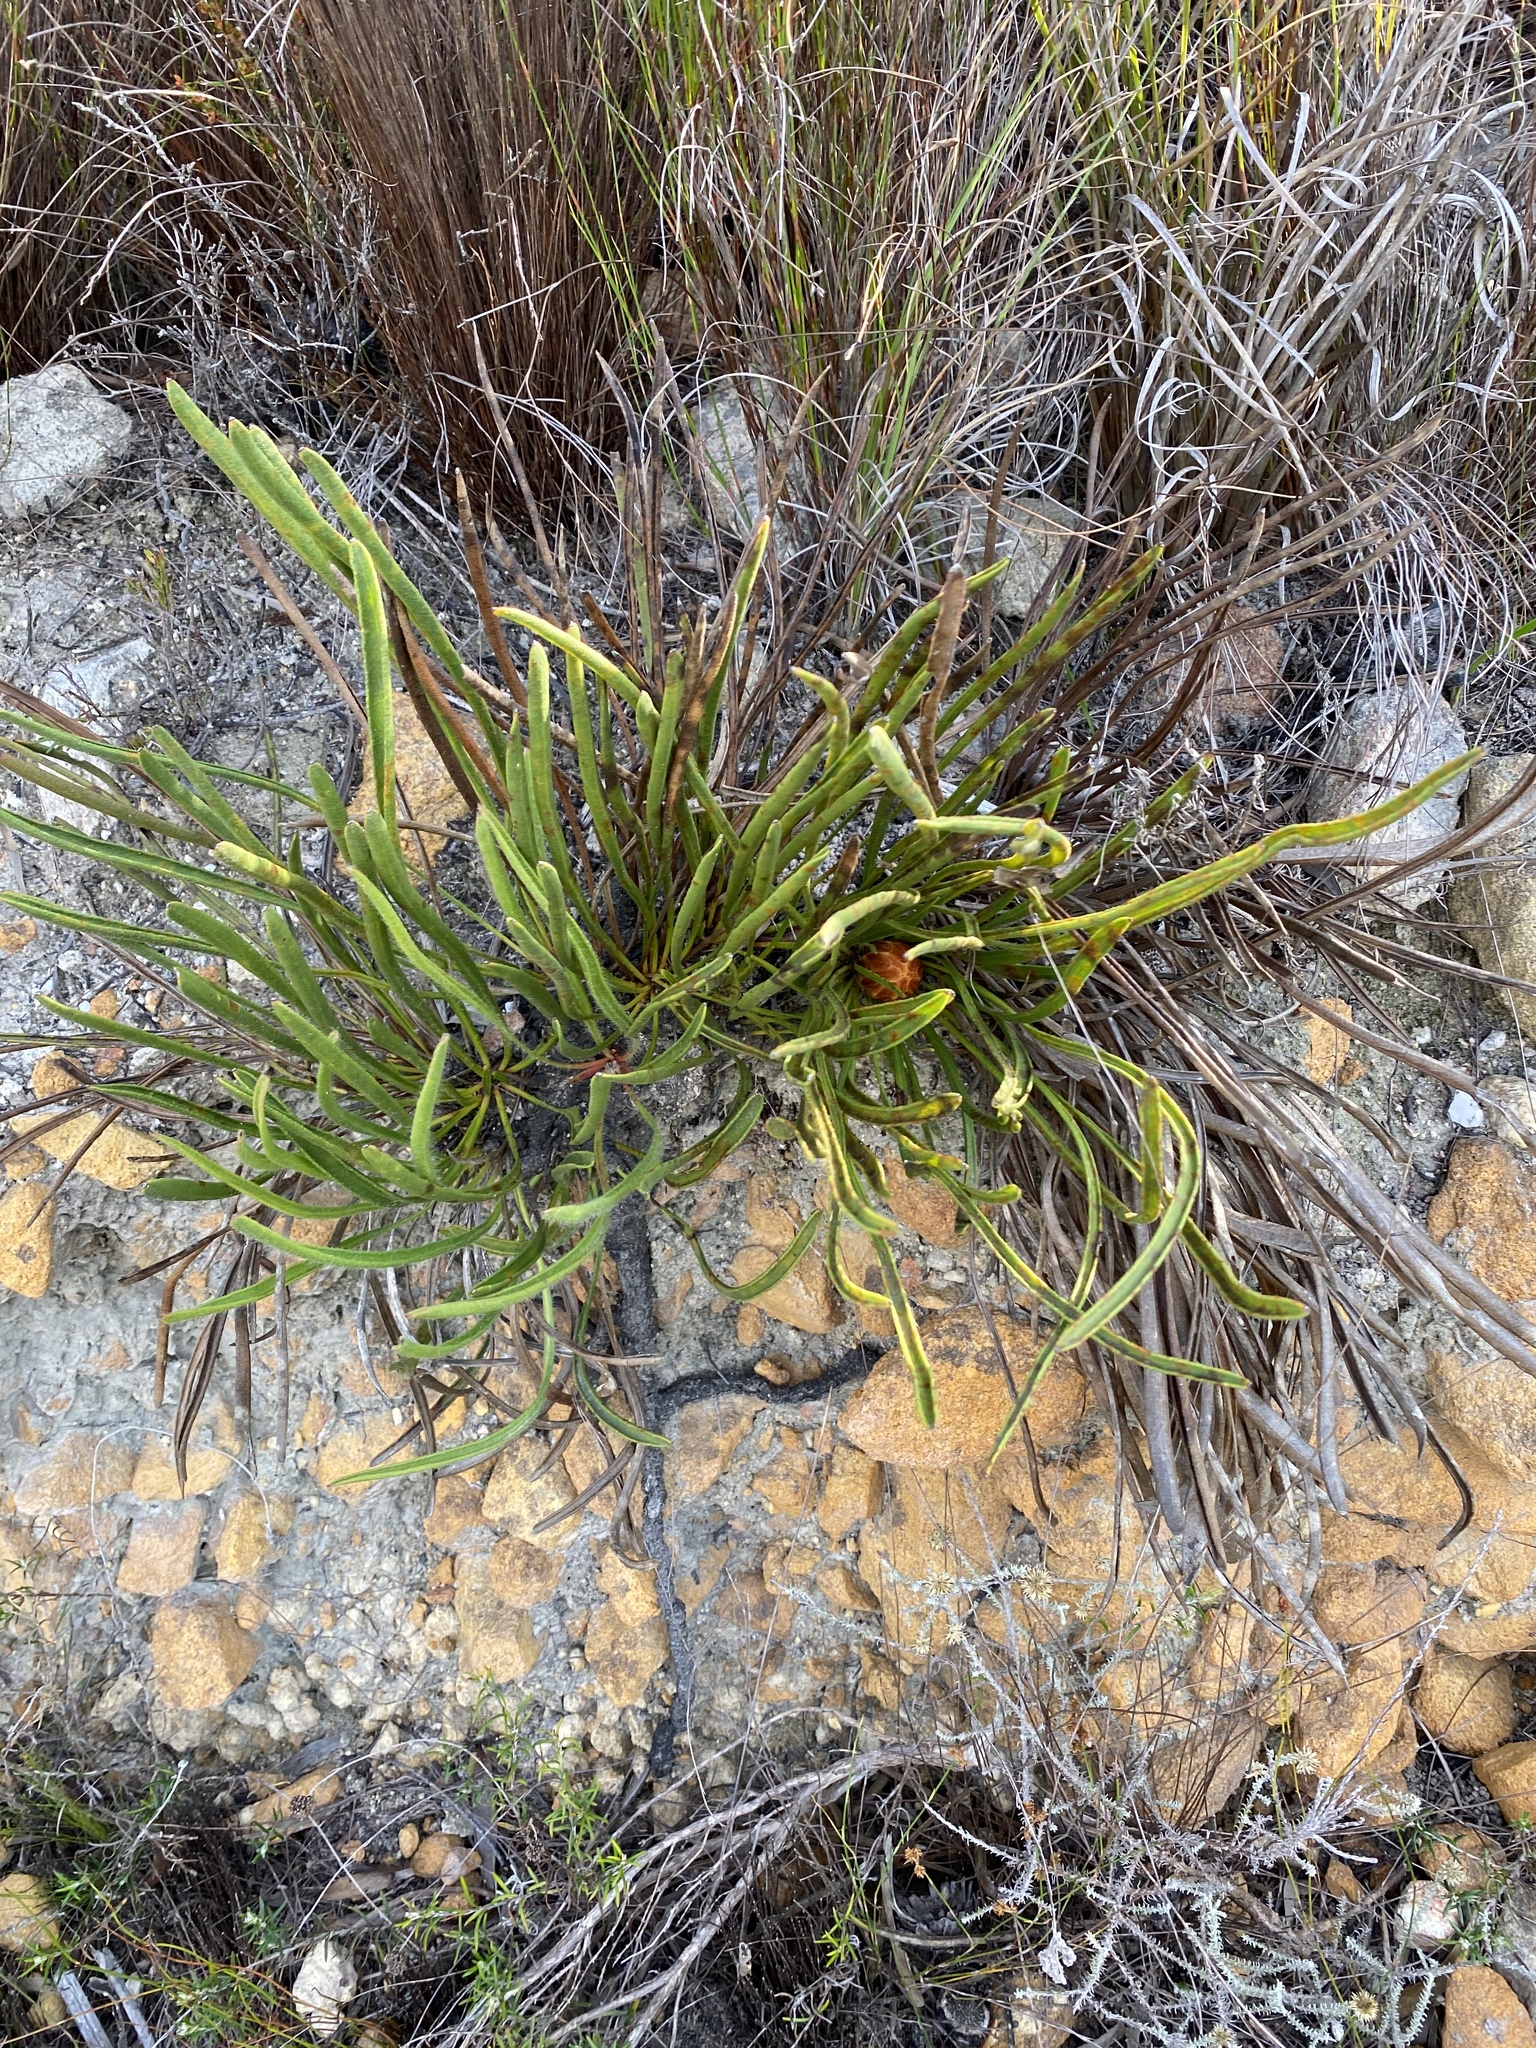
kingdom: Plantae
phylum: Tracheophyta
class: Magnoliopsida
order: Proteales
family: Proteaceae
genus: Protea
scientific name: Protea scabra
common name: Sandpaper-leaf sugarbush
